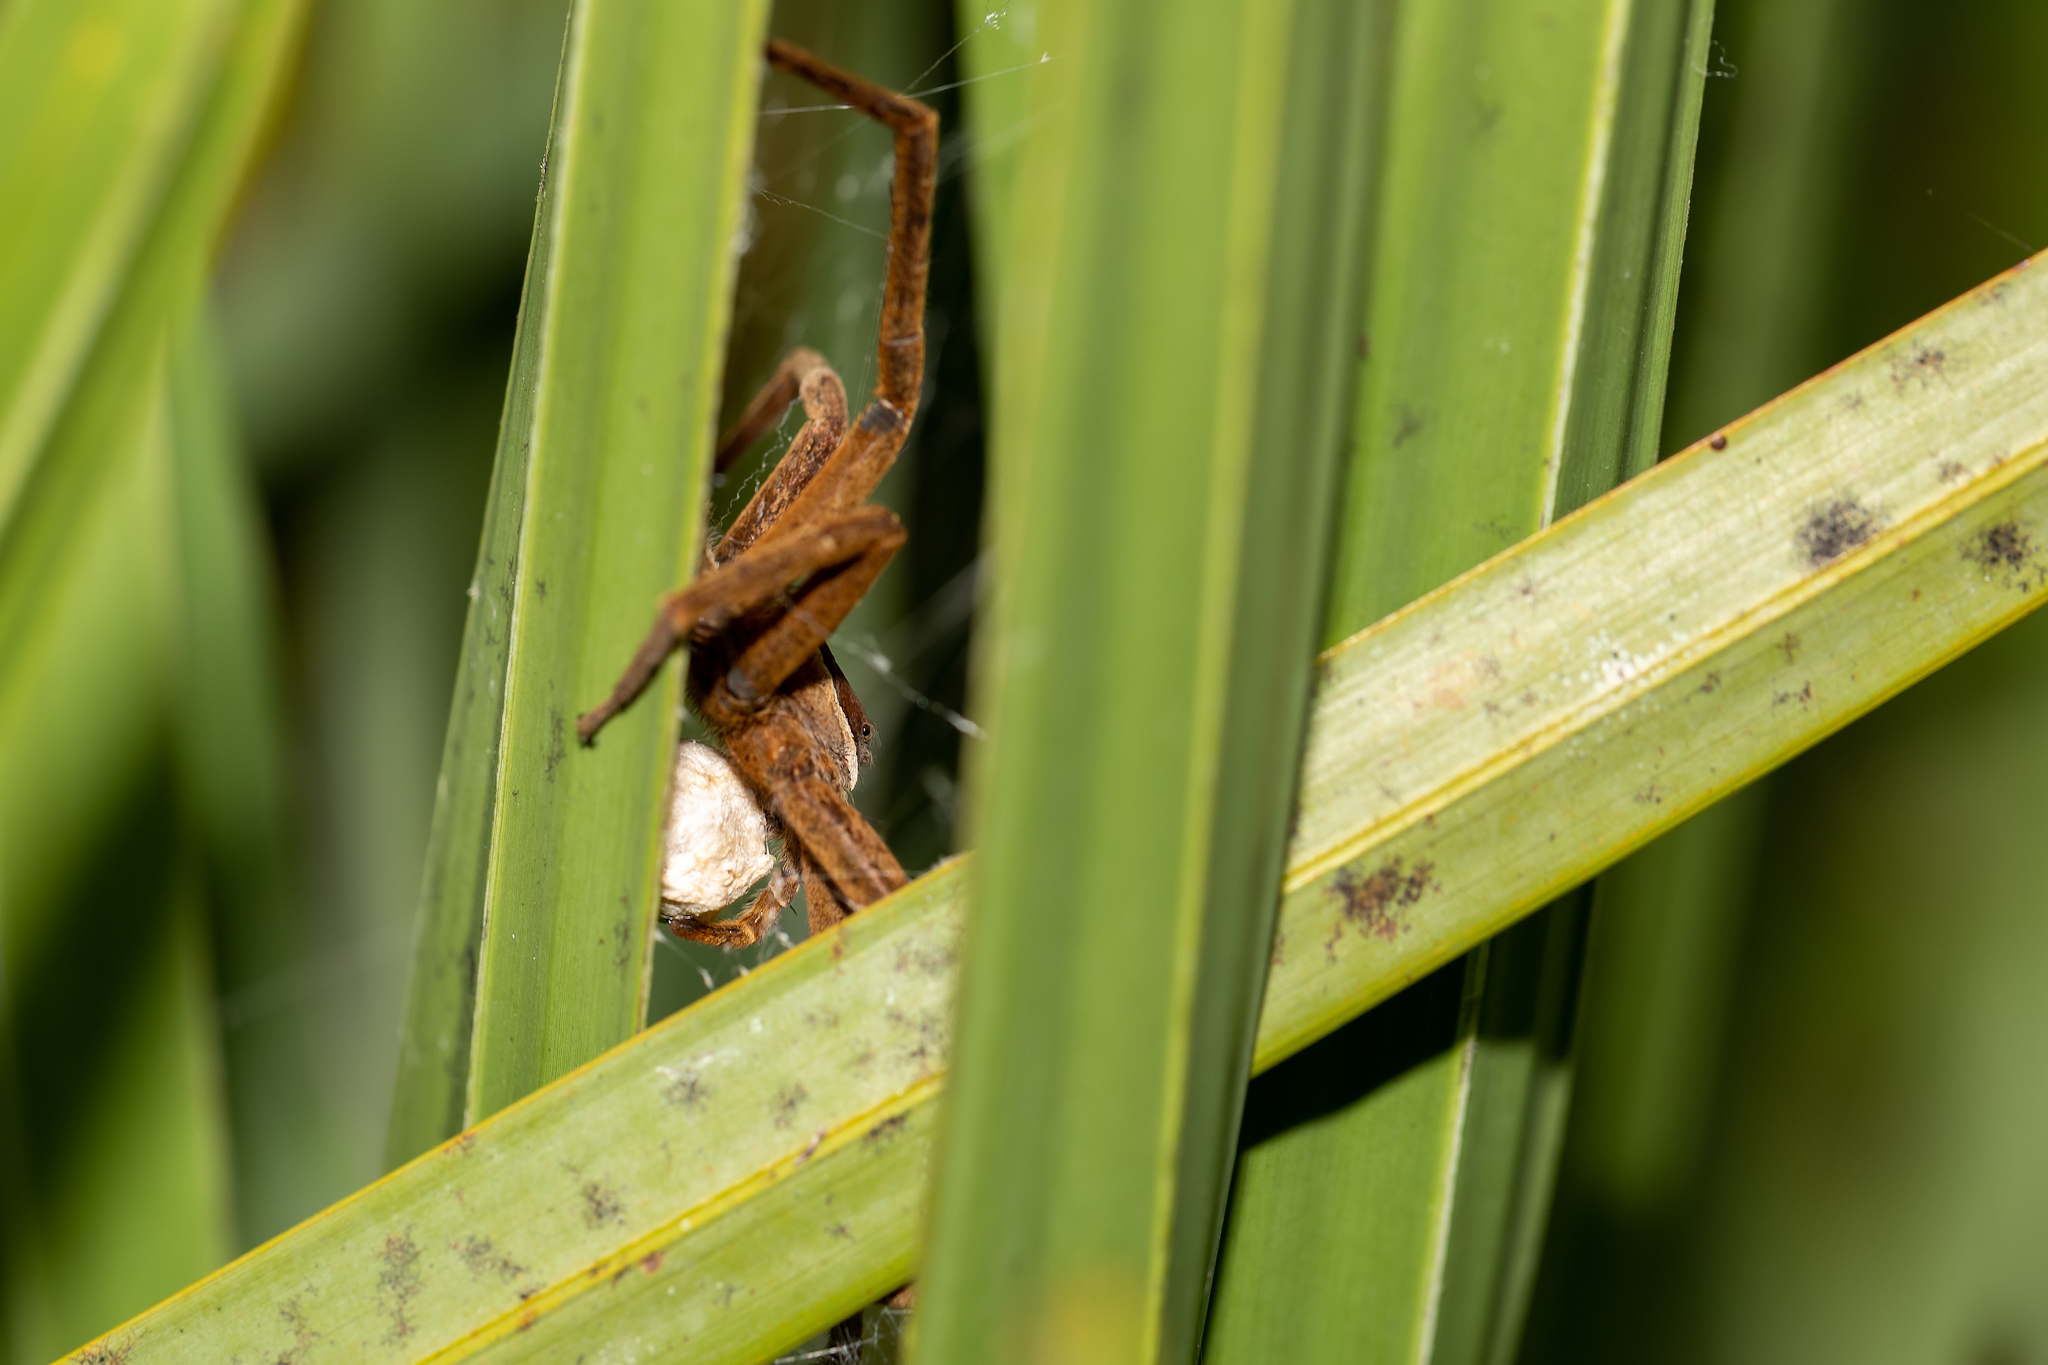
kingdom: Animalia
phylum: Arthropoda
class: Arachnida
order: Araneae
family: Pisauridae
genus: Pisaurina
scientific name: Pisaurina brevipes
